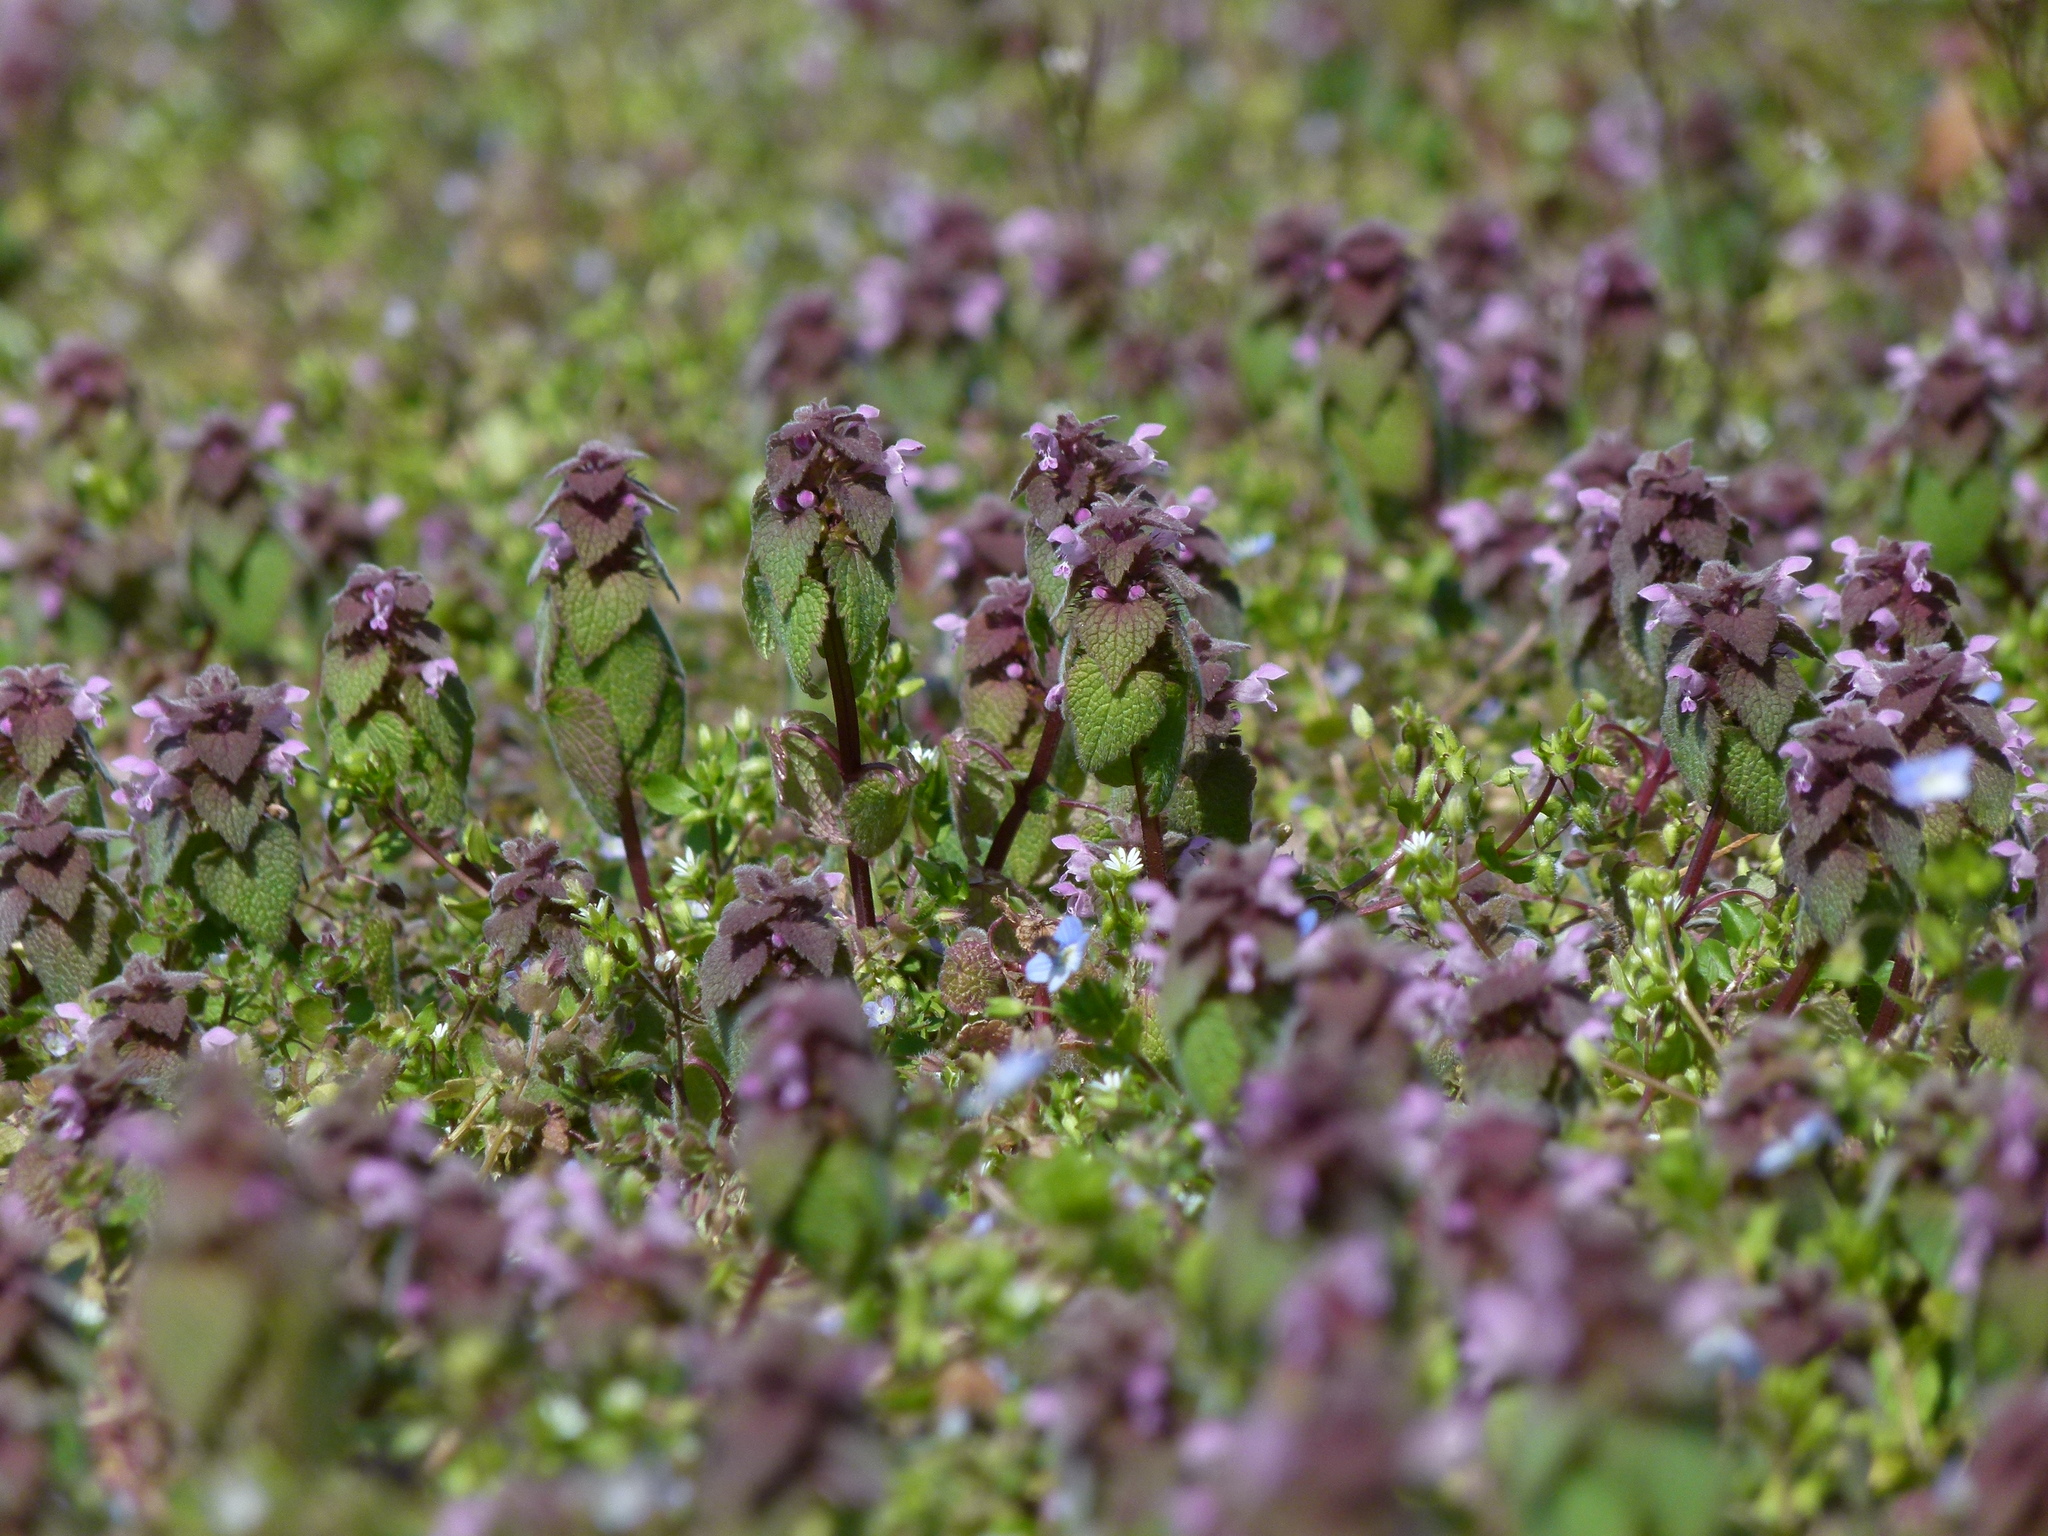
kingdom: Plantae
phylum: Tracheophyta
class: Magnoliopsida
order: Lamiales
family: Lamiaceae
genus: Lamium
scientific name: Lamium purpureum
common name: Red dead-nettle
